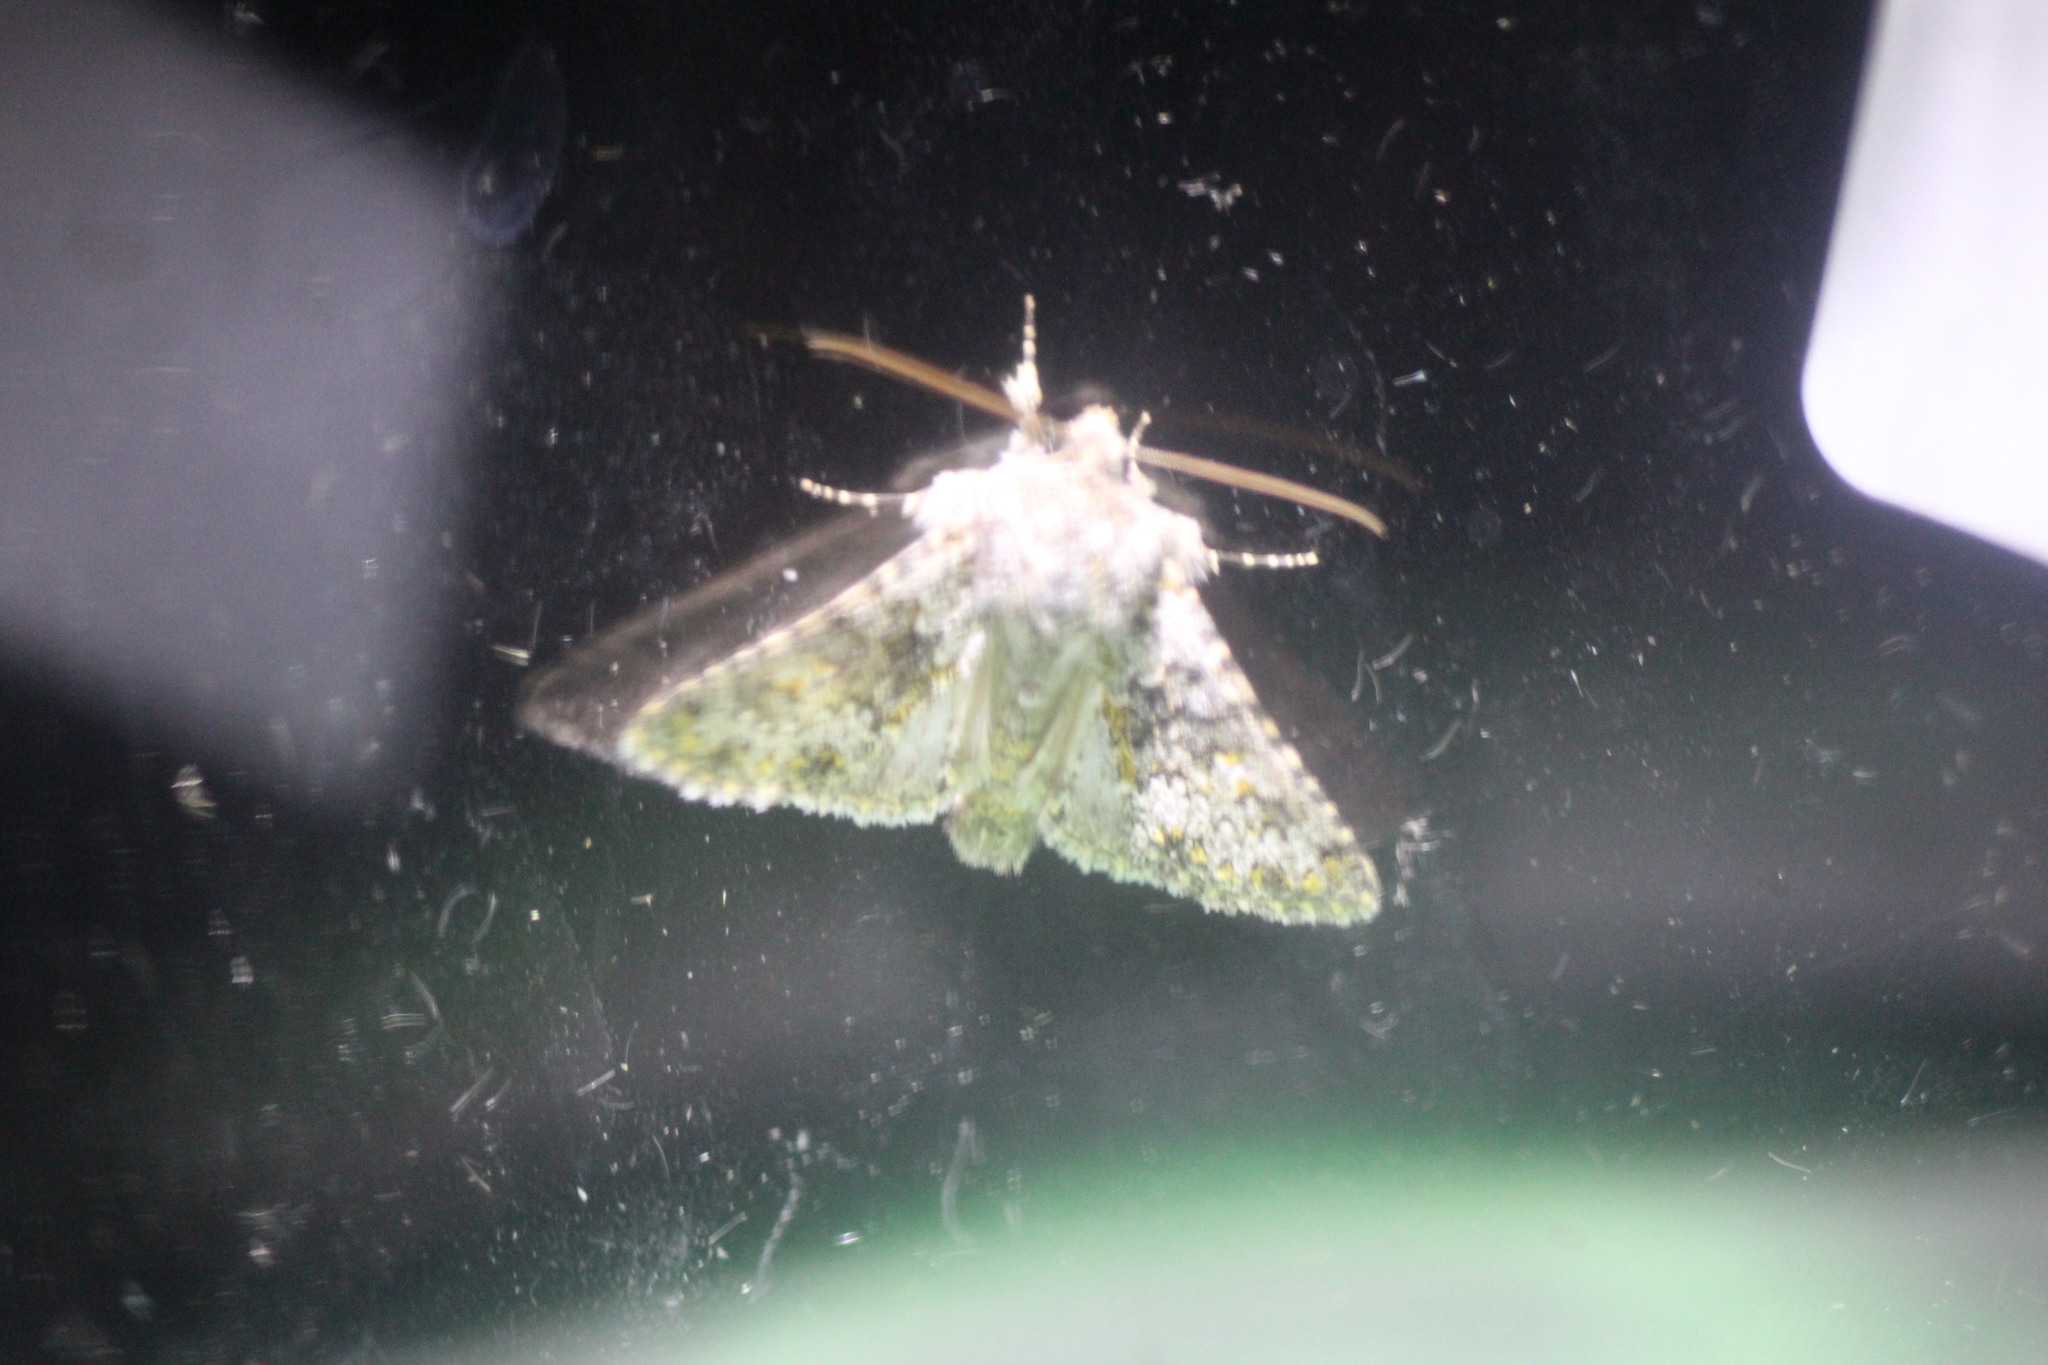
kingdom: Animalia
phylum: Arthropoda
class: Insecta
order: Lepidoptera
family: Noctuidae
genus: Hecatera
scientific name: Hecatera dysodea
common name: Small ranunculus
